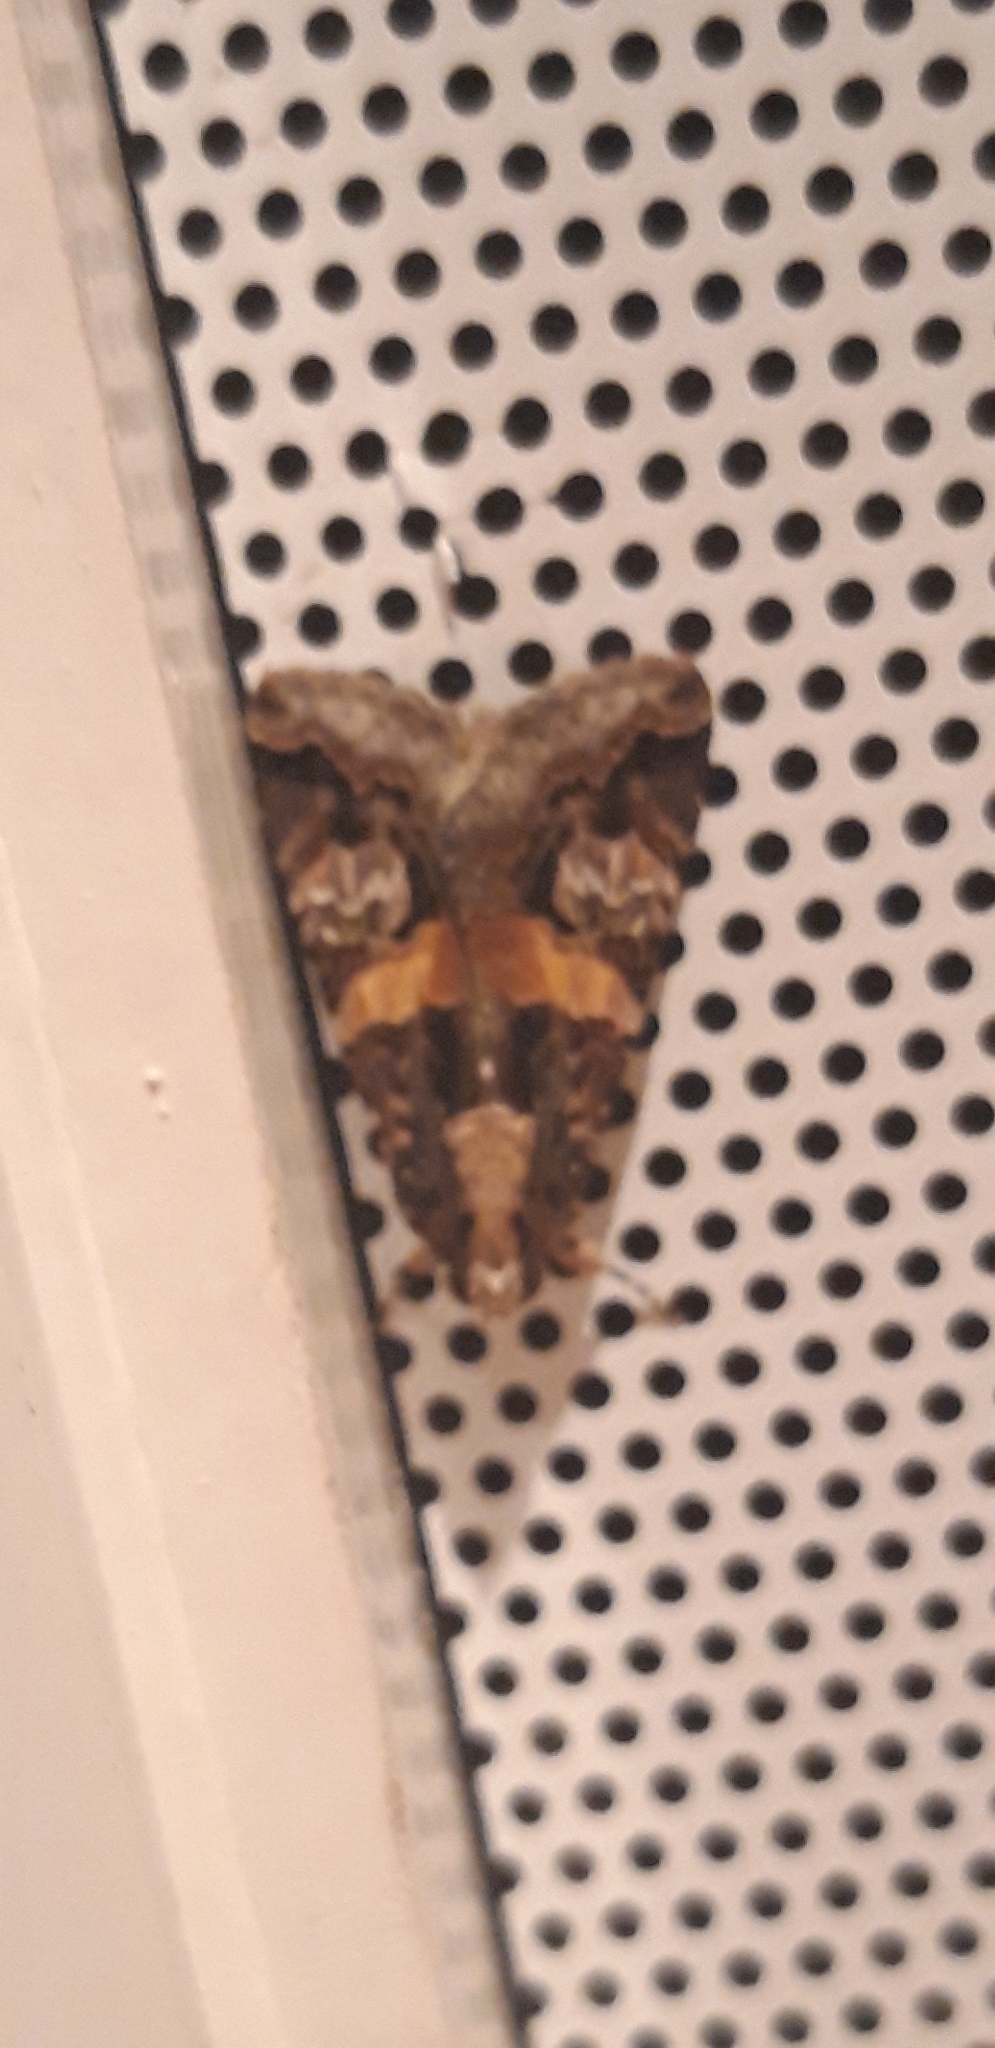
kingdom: Animalia
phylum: Arthropoda
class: Insecta
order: Lepidoptera
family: Erebidae
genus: Melipotis
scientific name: Melipotis famelica
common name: Famelica melipotis moth
